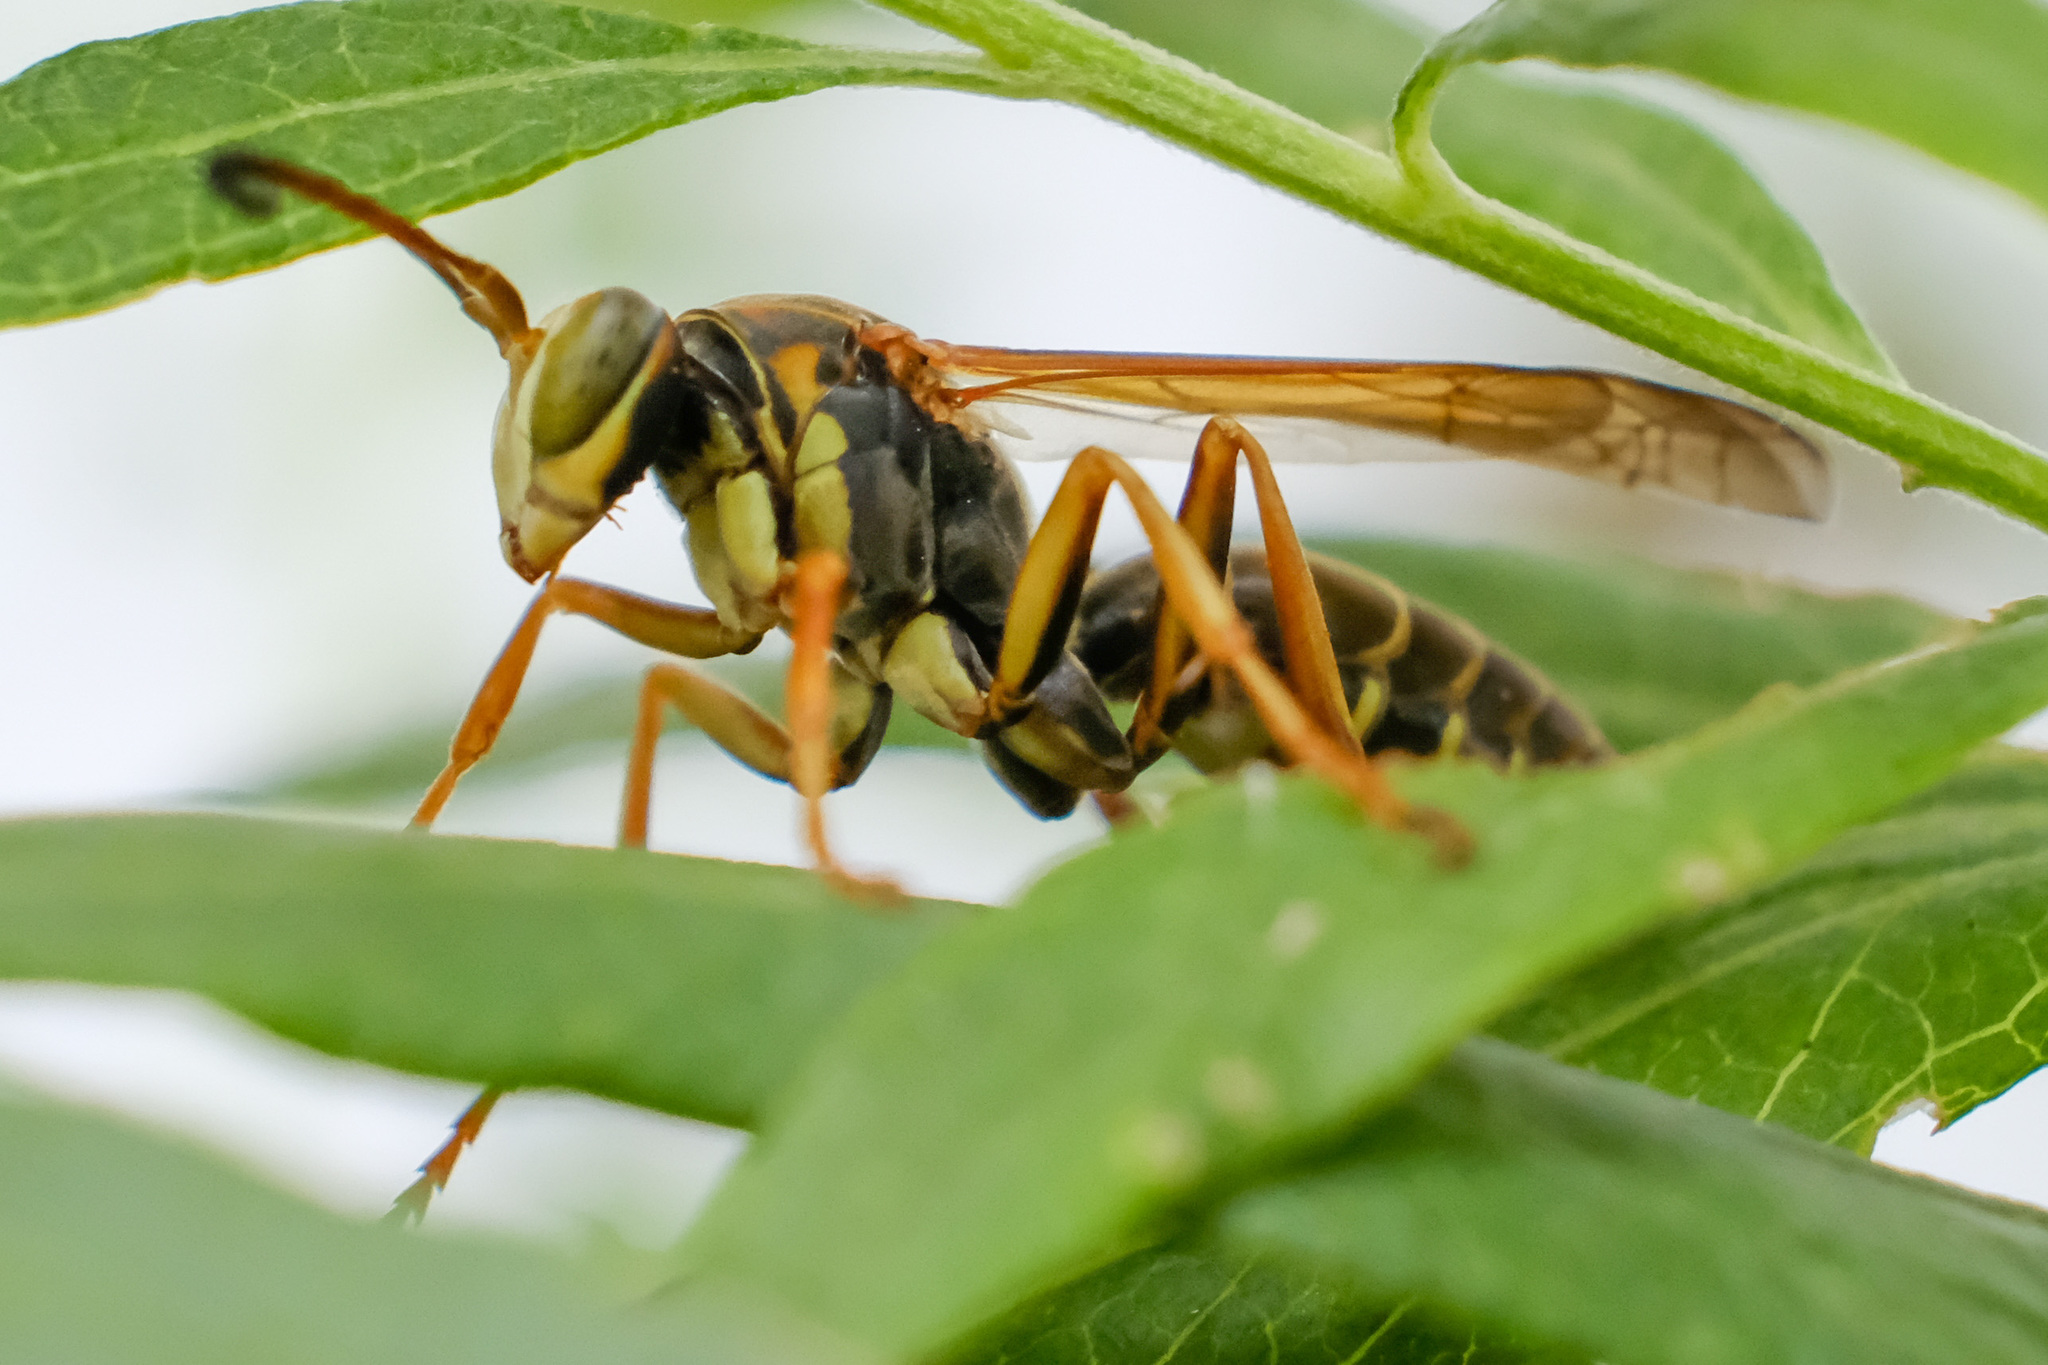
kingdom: Animalia
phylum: Arthropoda
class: Insecta
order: Hymenoptera
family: Eumenidae
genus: Polistes
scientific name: Polistes fuscatus
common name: Dark paper wasp
